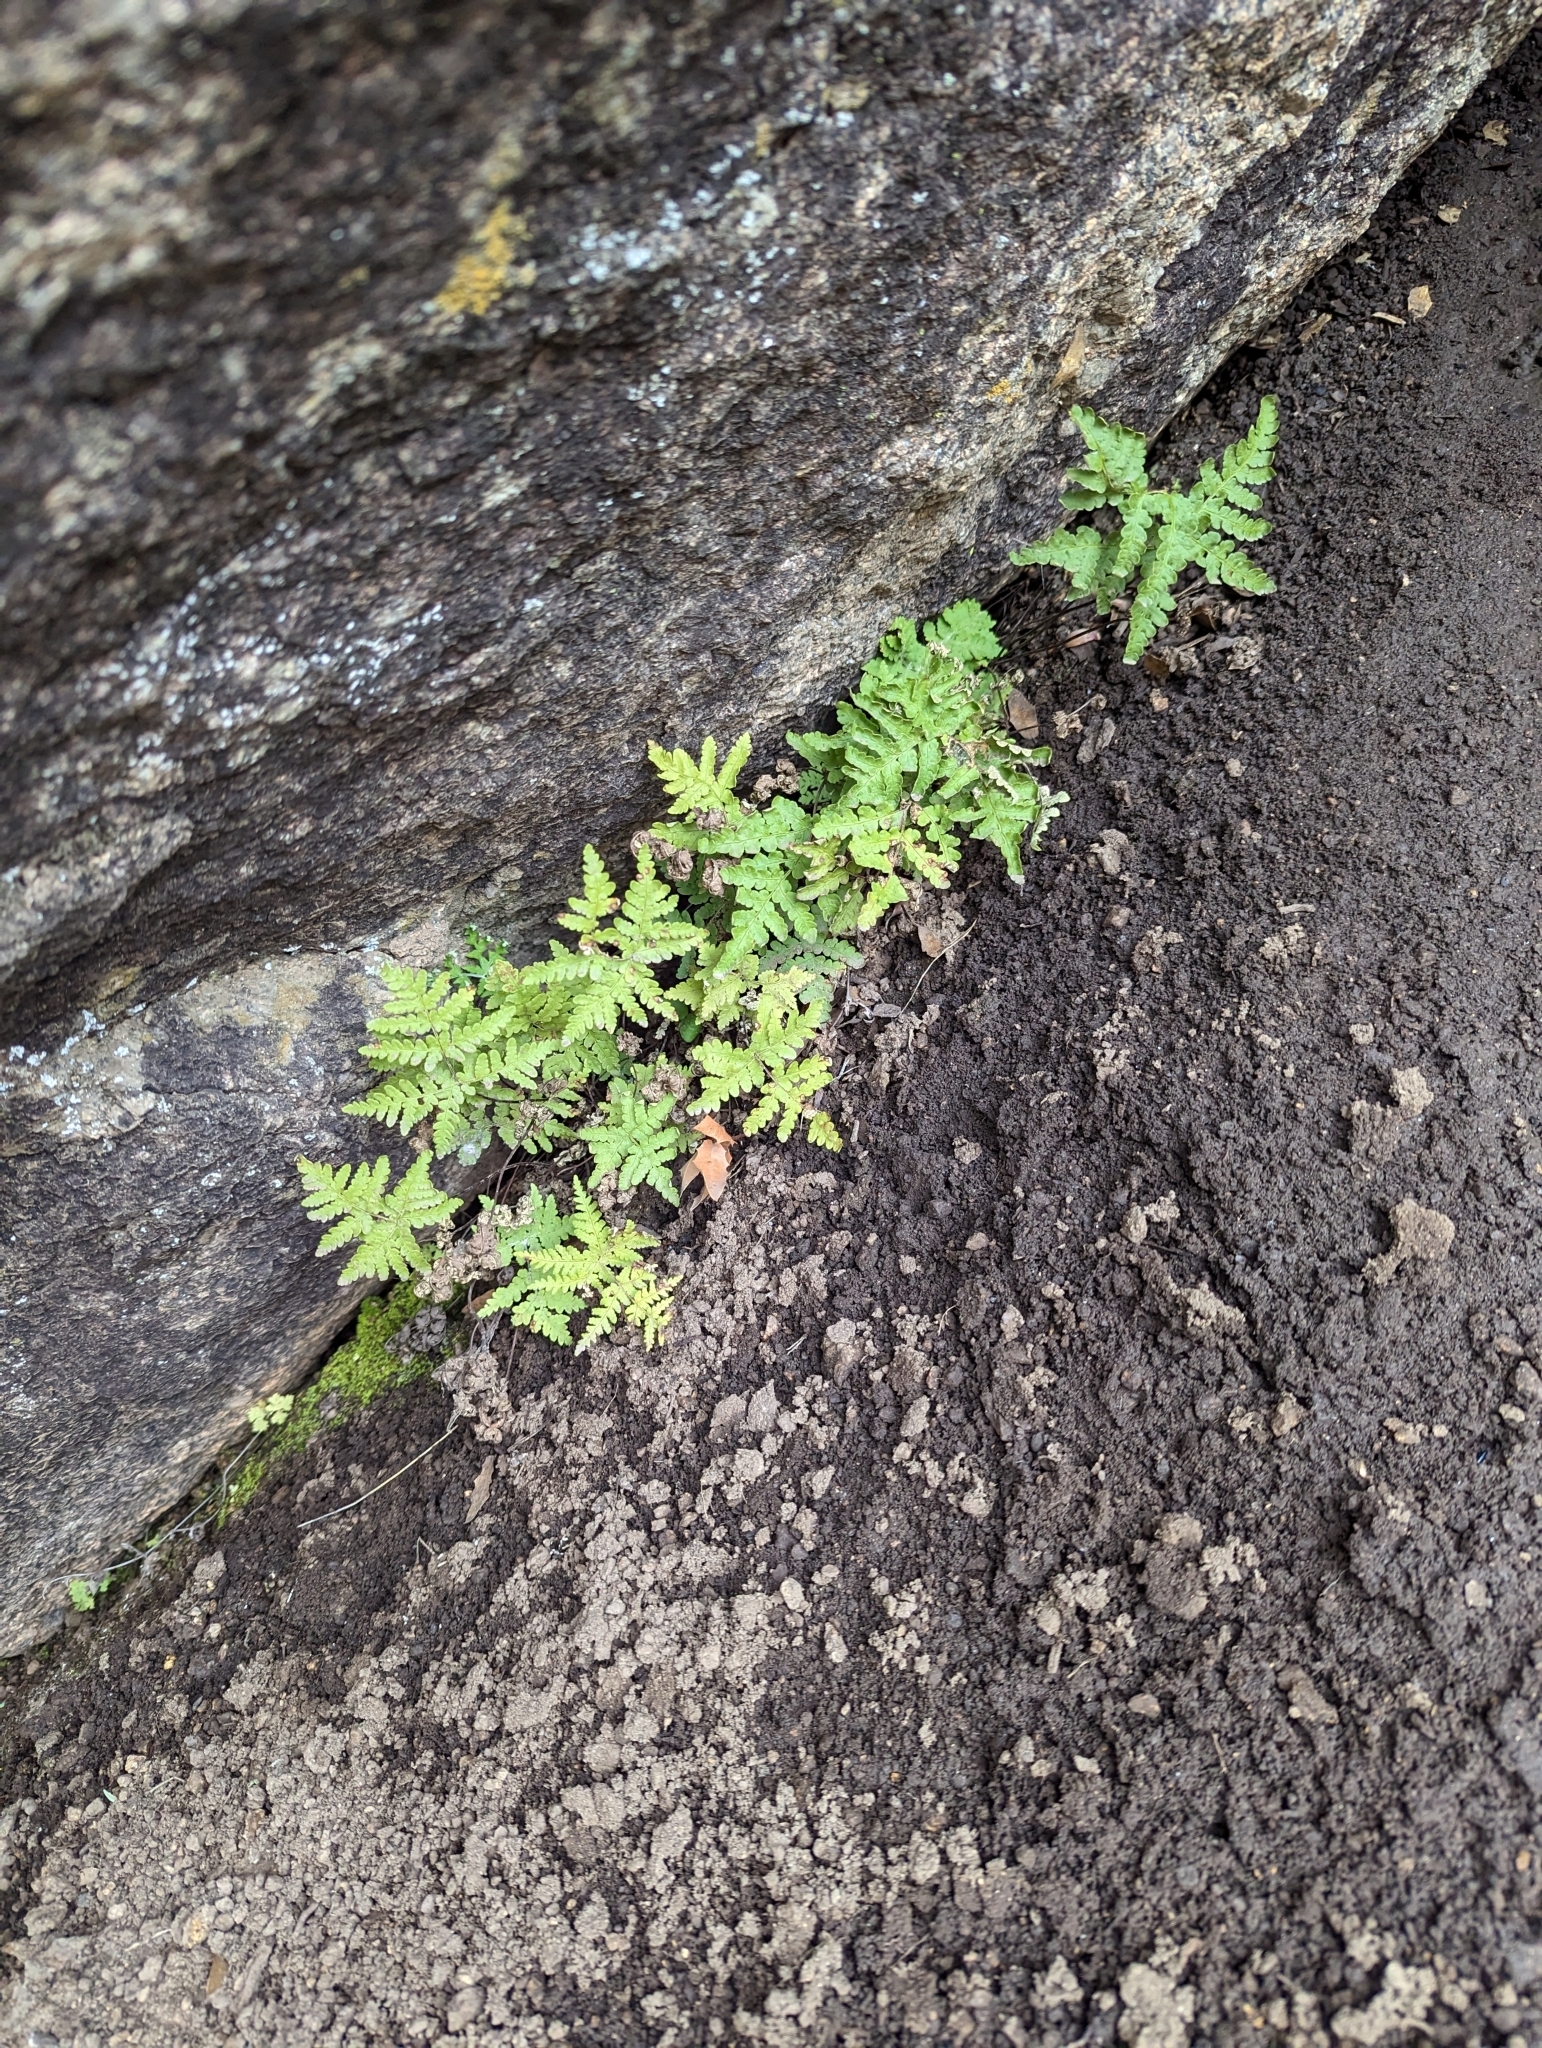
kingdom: Plantae
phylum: Tracheophyta
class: Polypodiopsida
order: Polypodiales
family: Pteridaceae
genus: Pentagramma
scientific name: Pentagramma maxonii
